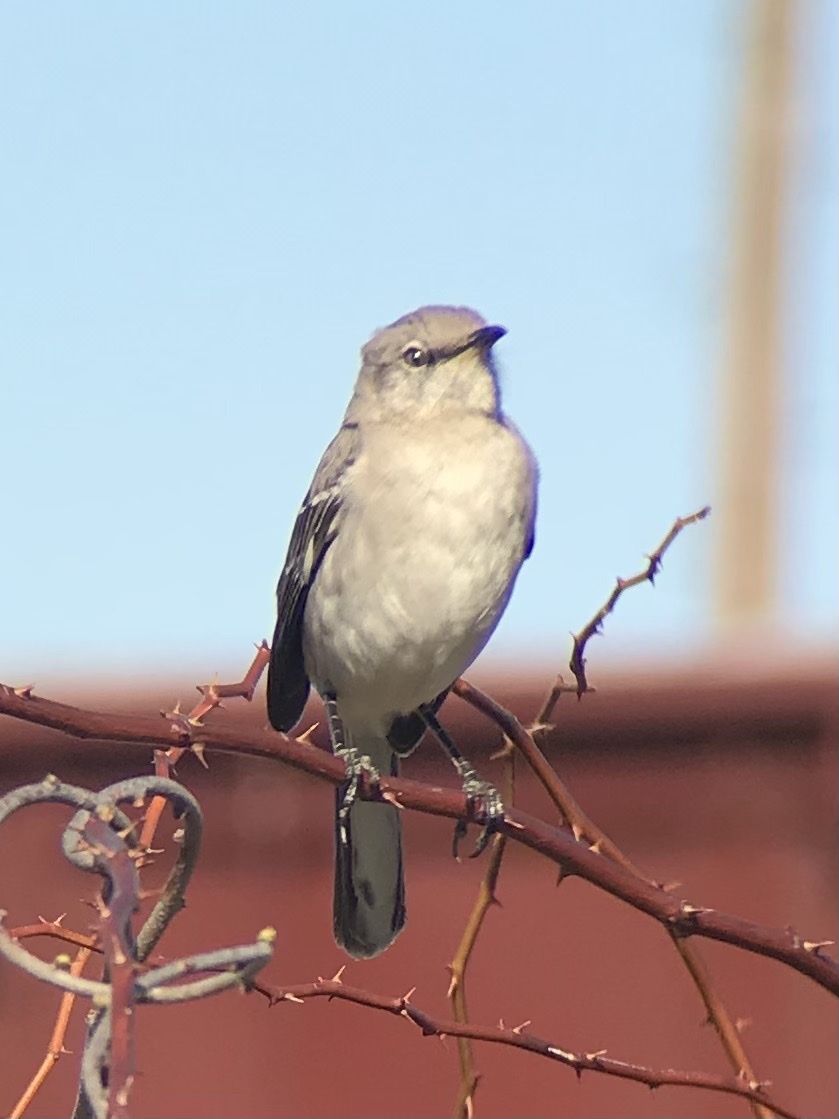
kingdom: Animalia
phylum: Chordata
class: Aves
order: Passeriformes
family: Mimidae
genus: Mimus
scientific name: Mimus polyglottos
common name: Northern mockingbird
